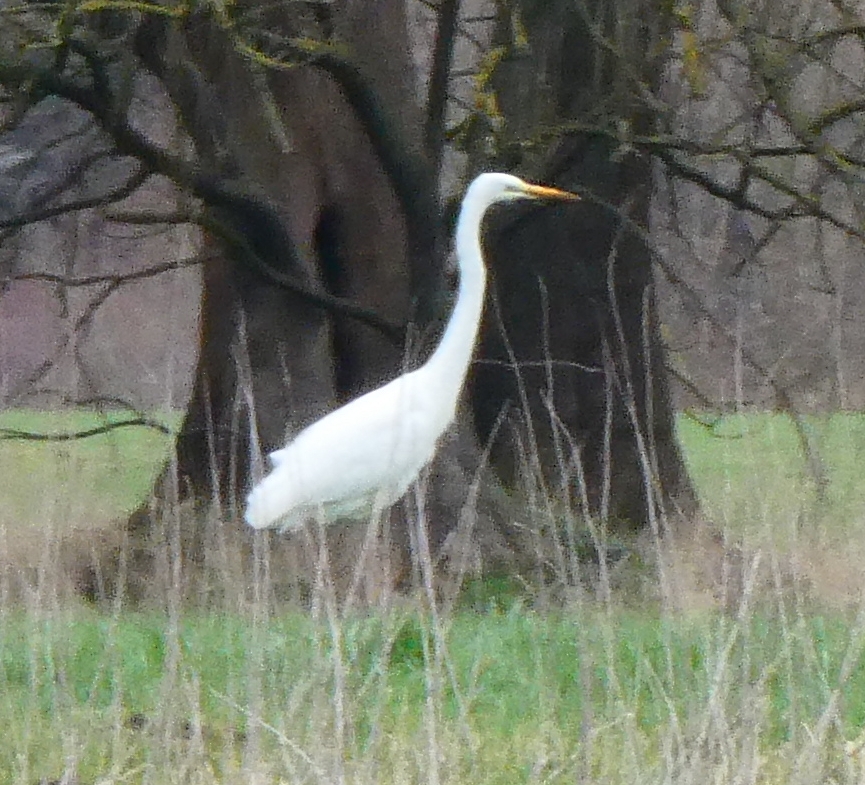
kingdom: Animalia
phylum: Chordata
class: Aves
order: Pelecaniformes
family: Ardeidae
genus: Ardea
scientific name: Ardea alba
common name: Great egret
